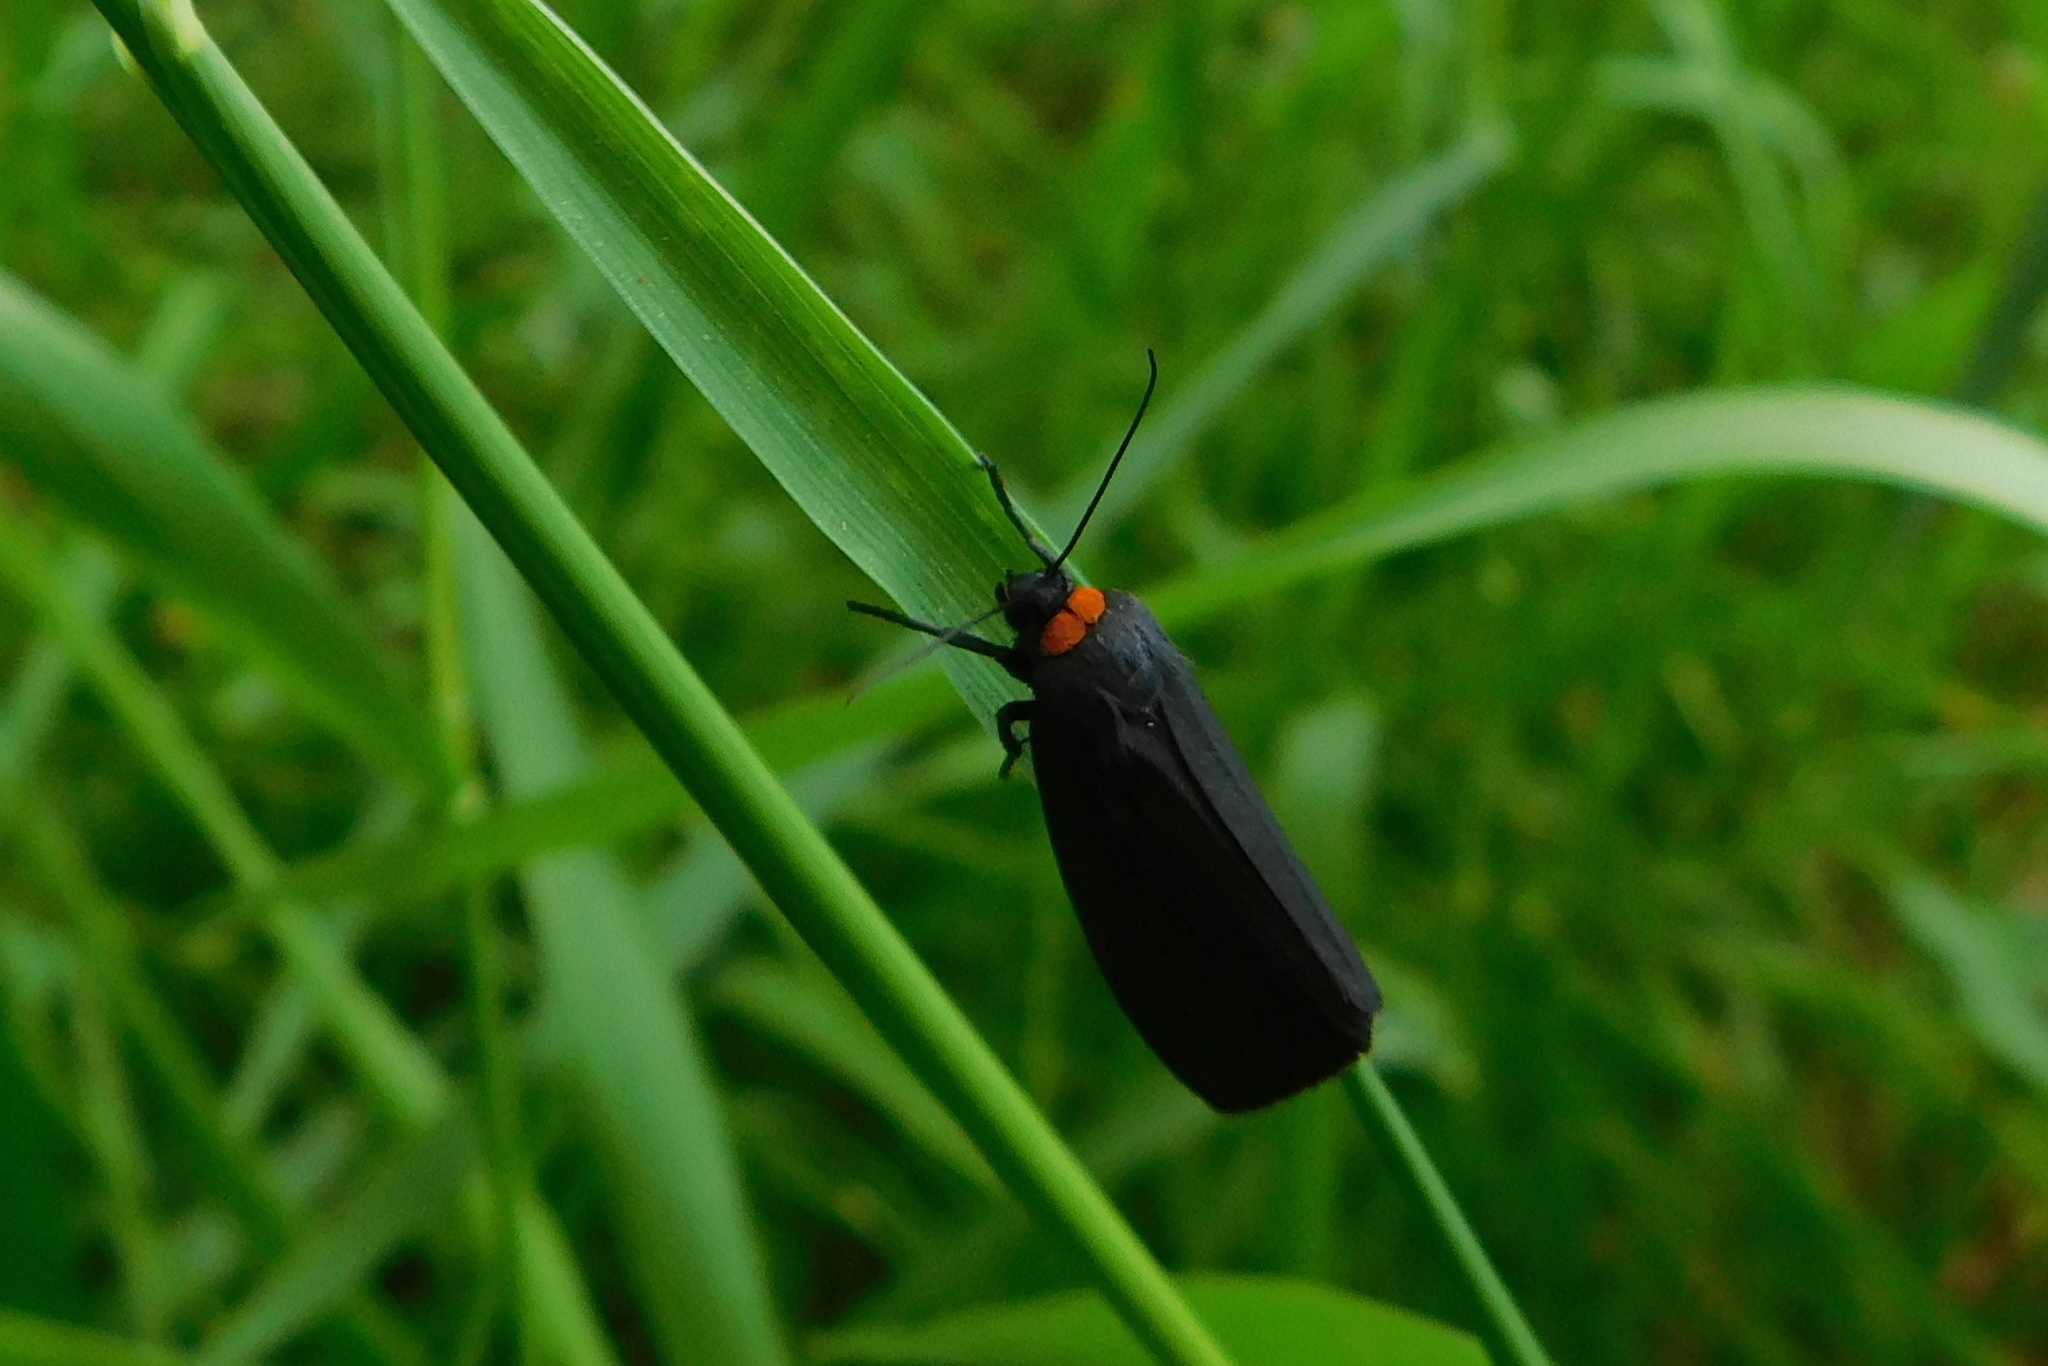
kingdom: Animalia
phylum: Arthropoda
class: Insecta
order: Lepidoptera
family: Erebidae
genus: Atolmis
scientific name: Atolmis rubricollis
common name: Red-necked footman
